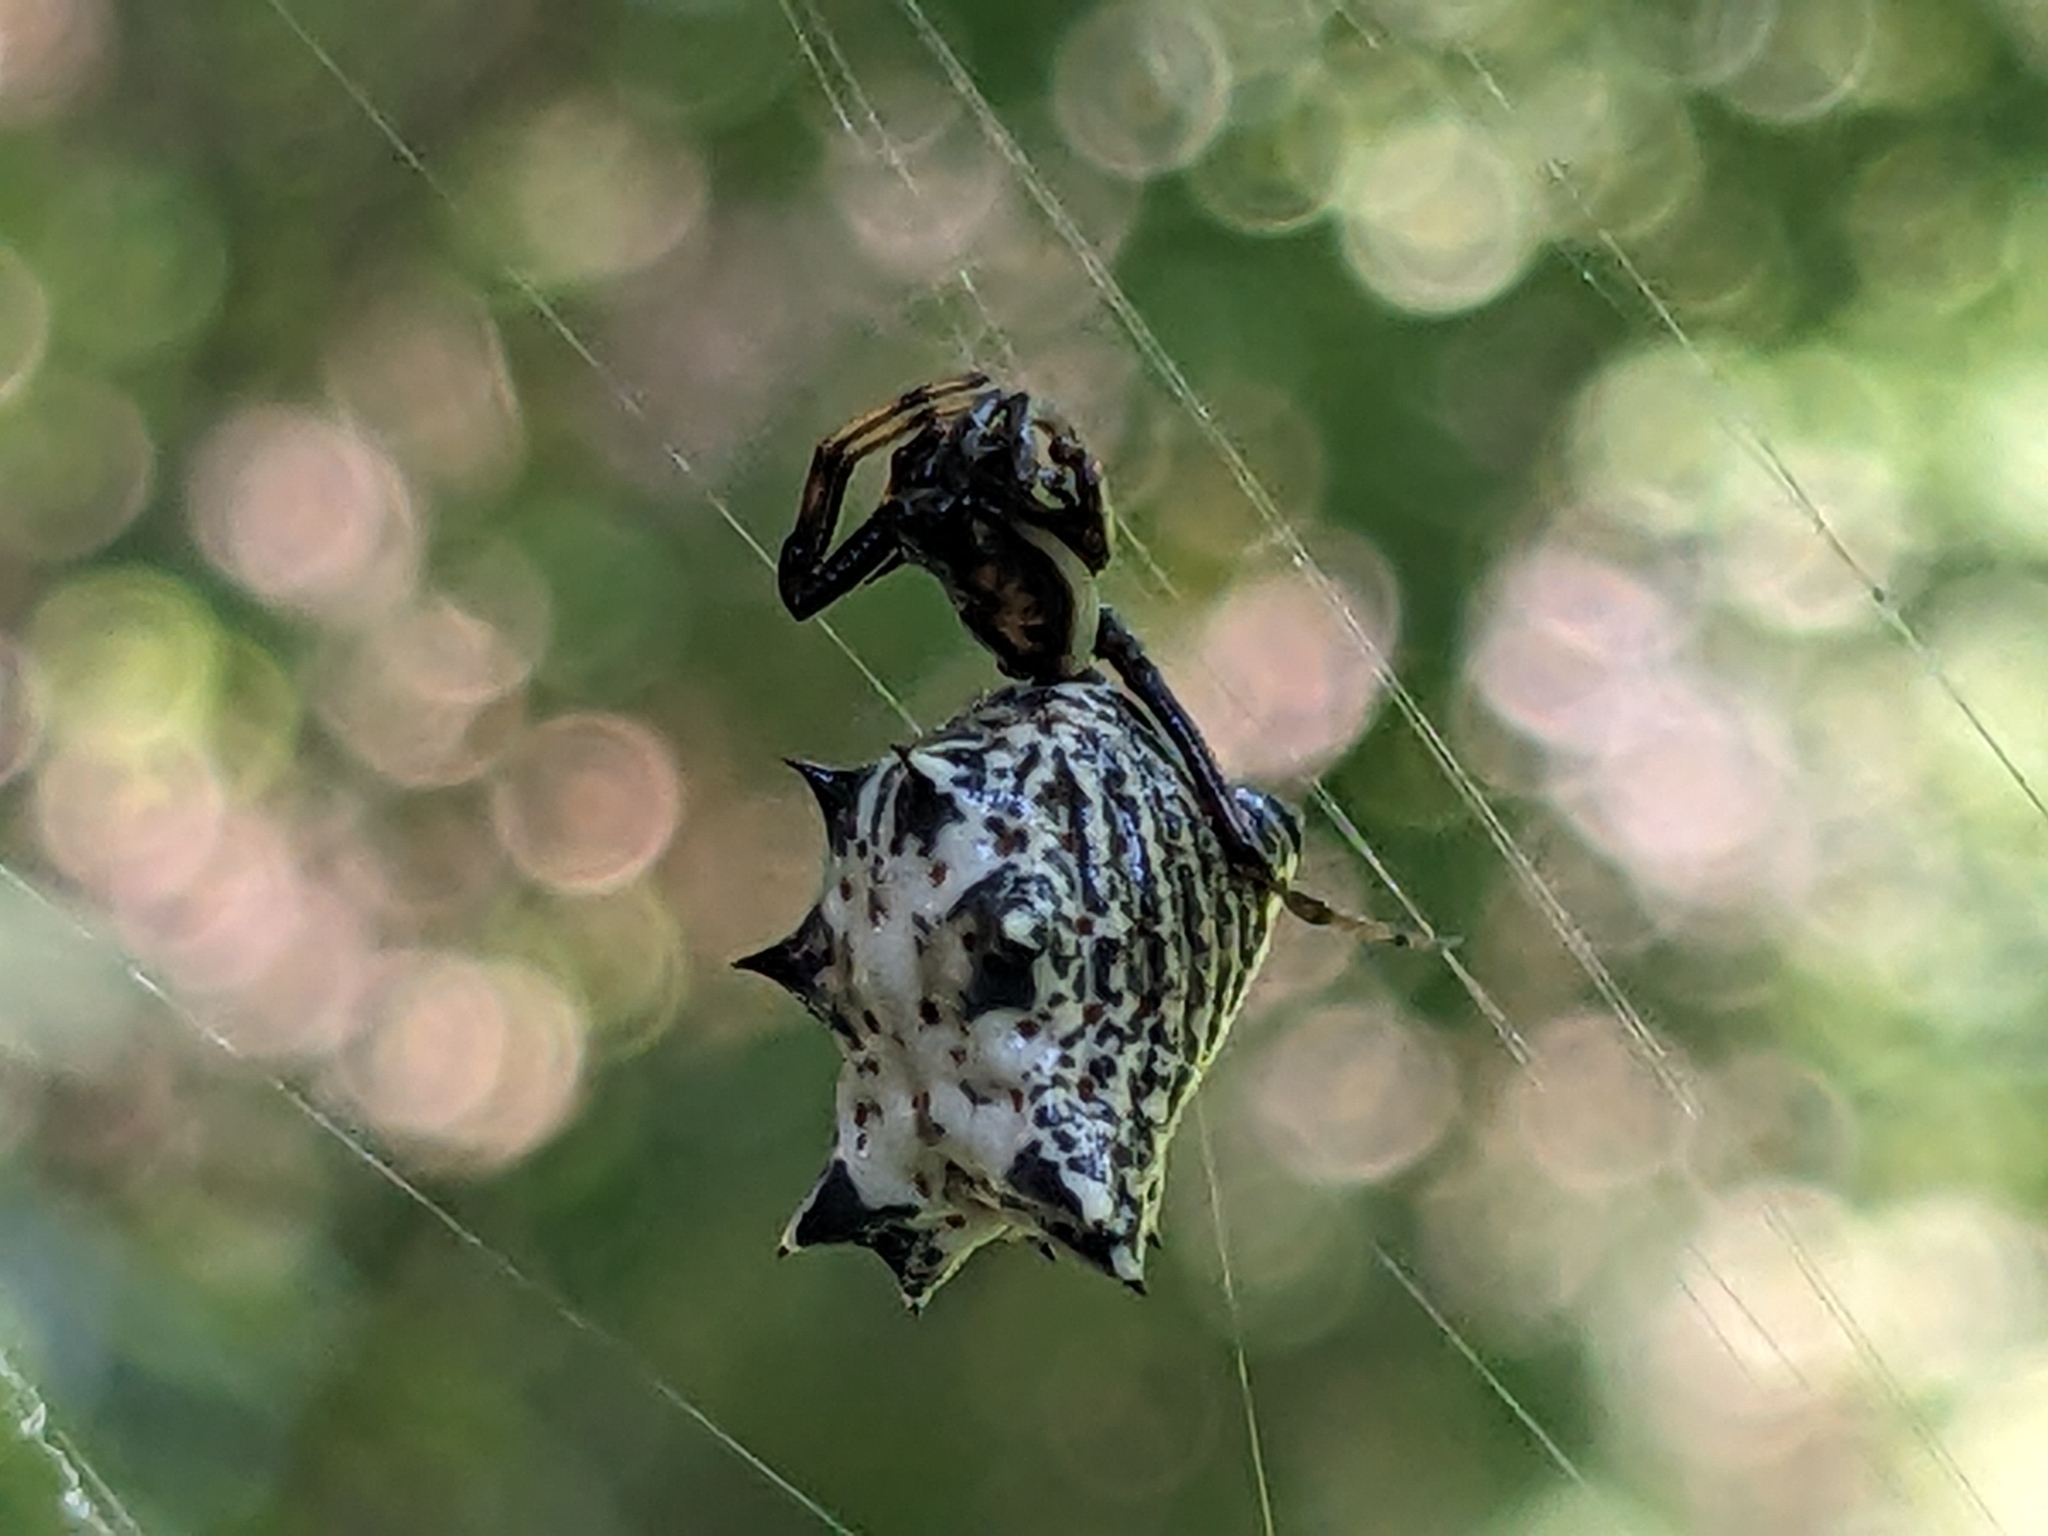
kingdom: Animalia
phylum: Arthropoda
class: Arachnida
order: Araneae
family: Araneidae
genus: Micrathena
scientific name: Micrathena gracilis
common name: Orb weavers
